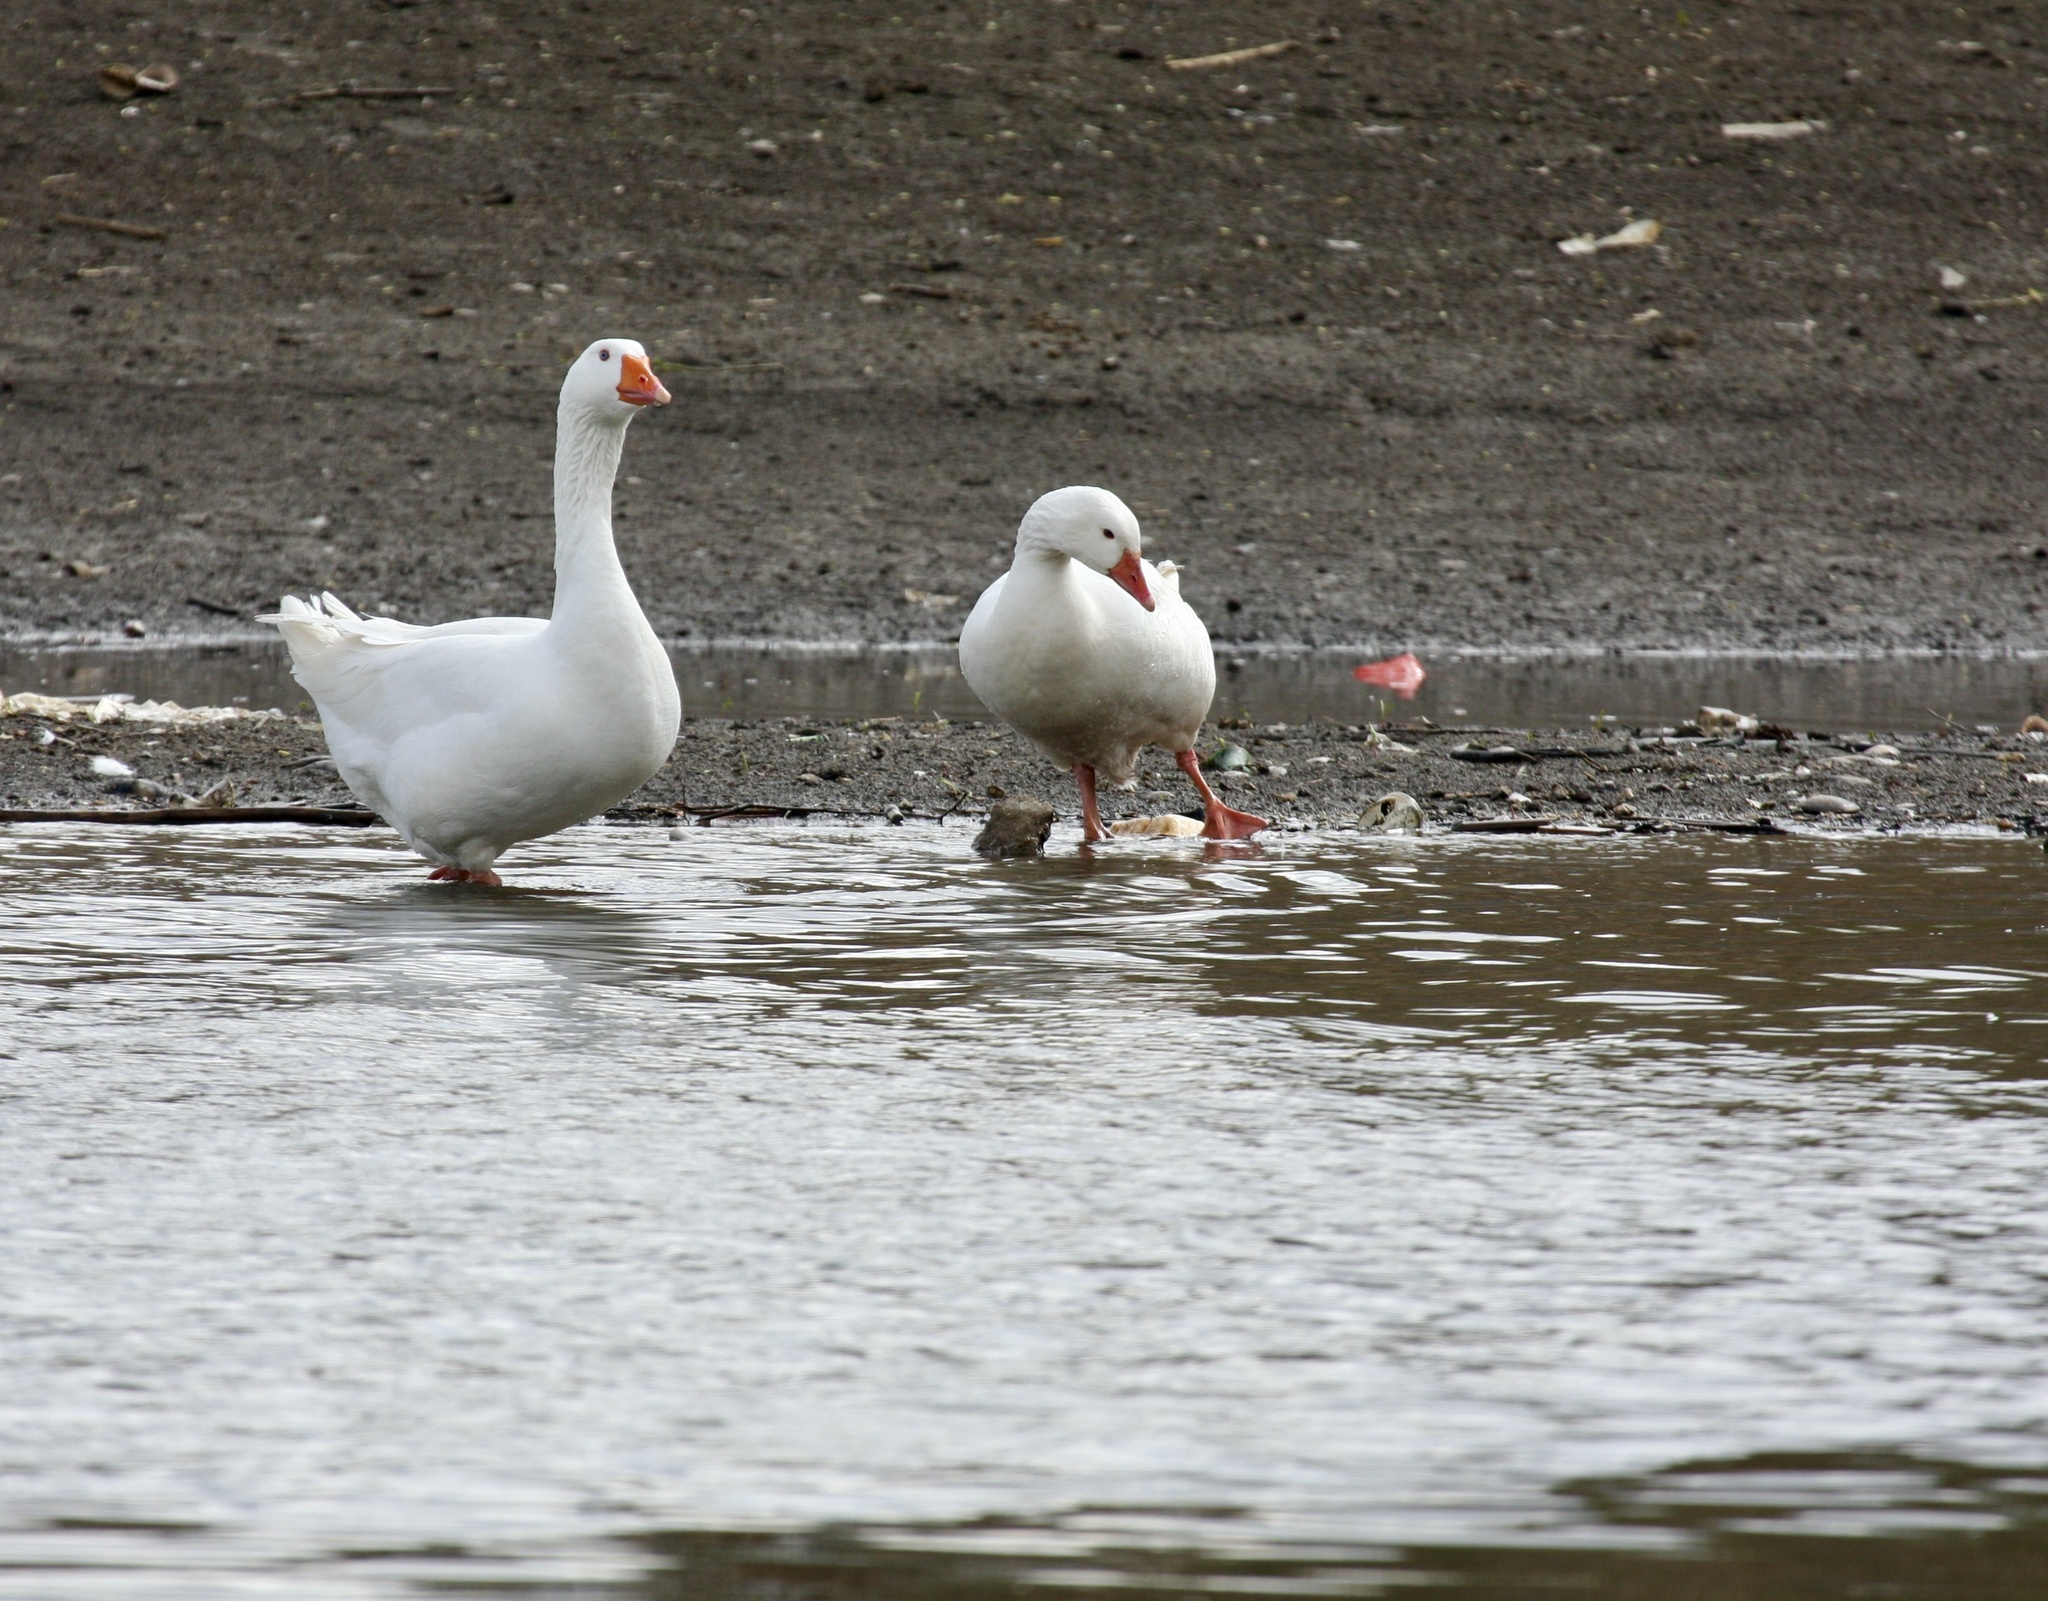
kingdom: Animalia
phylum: Chordata
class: Aves
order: Anseriformes
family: Anatidae
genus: Anser
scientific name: Anser anser
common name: Greylag goose
